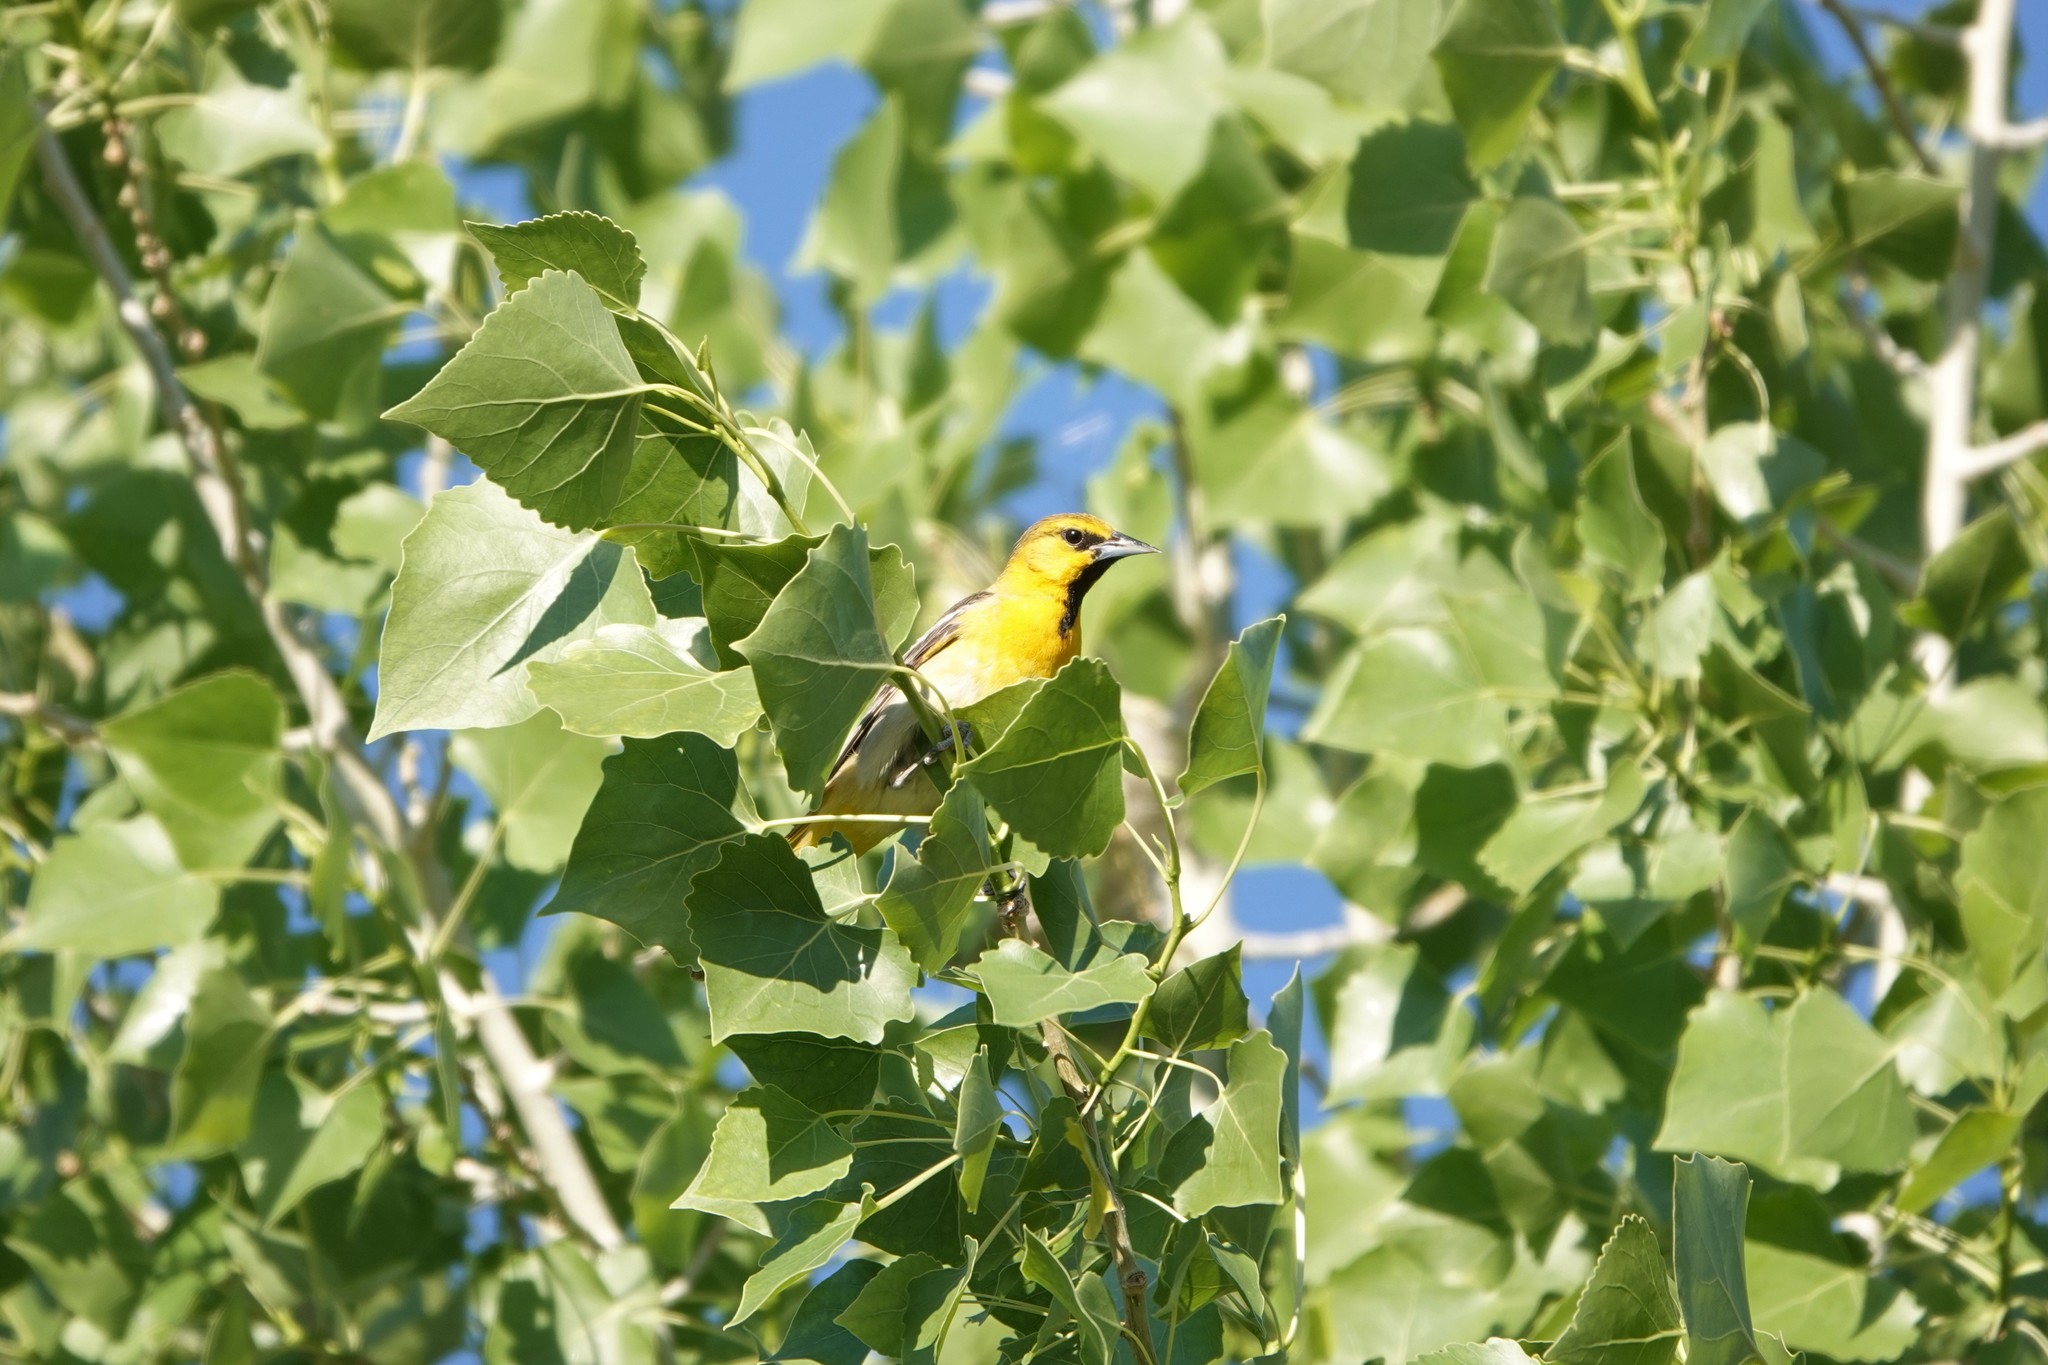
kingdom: Animalia
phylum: Chordata
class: Aves
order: Passeriformes
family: Icteridae
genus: Icterus
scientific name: Icterus bullockii
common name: Bullock's oriole
